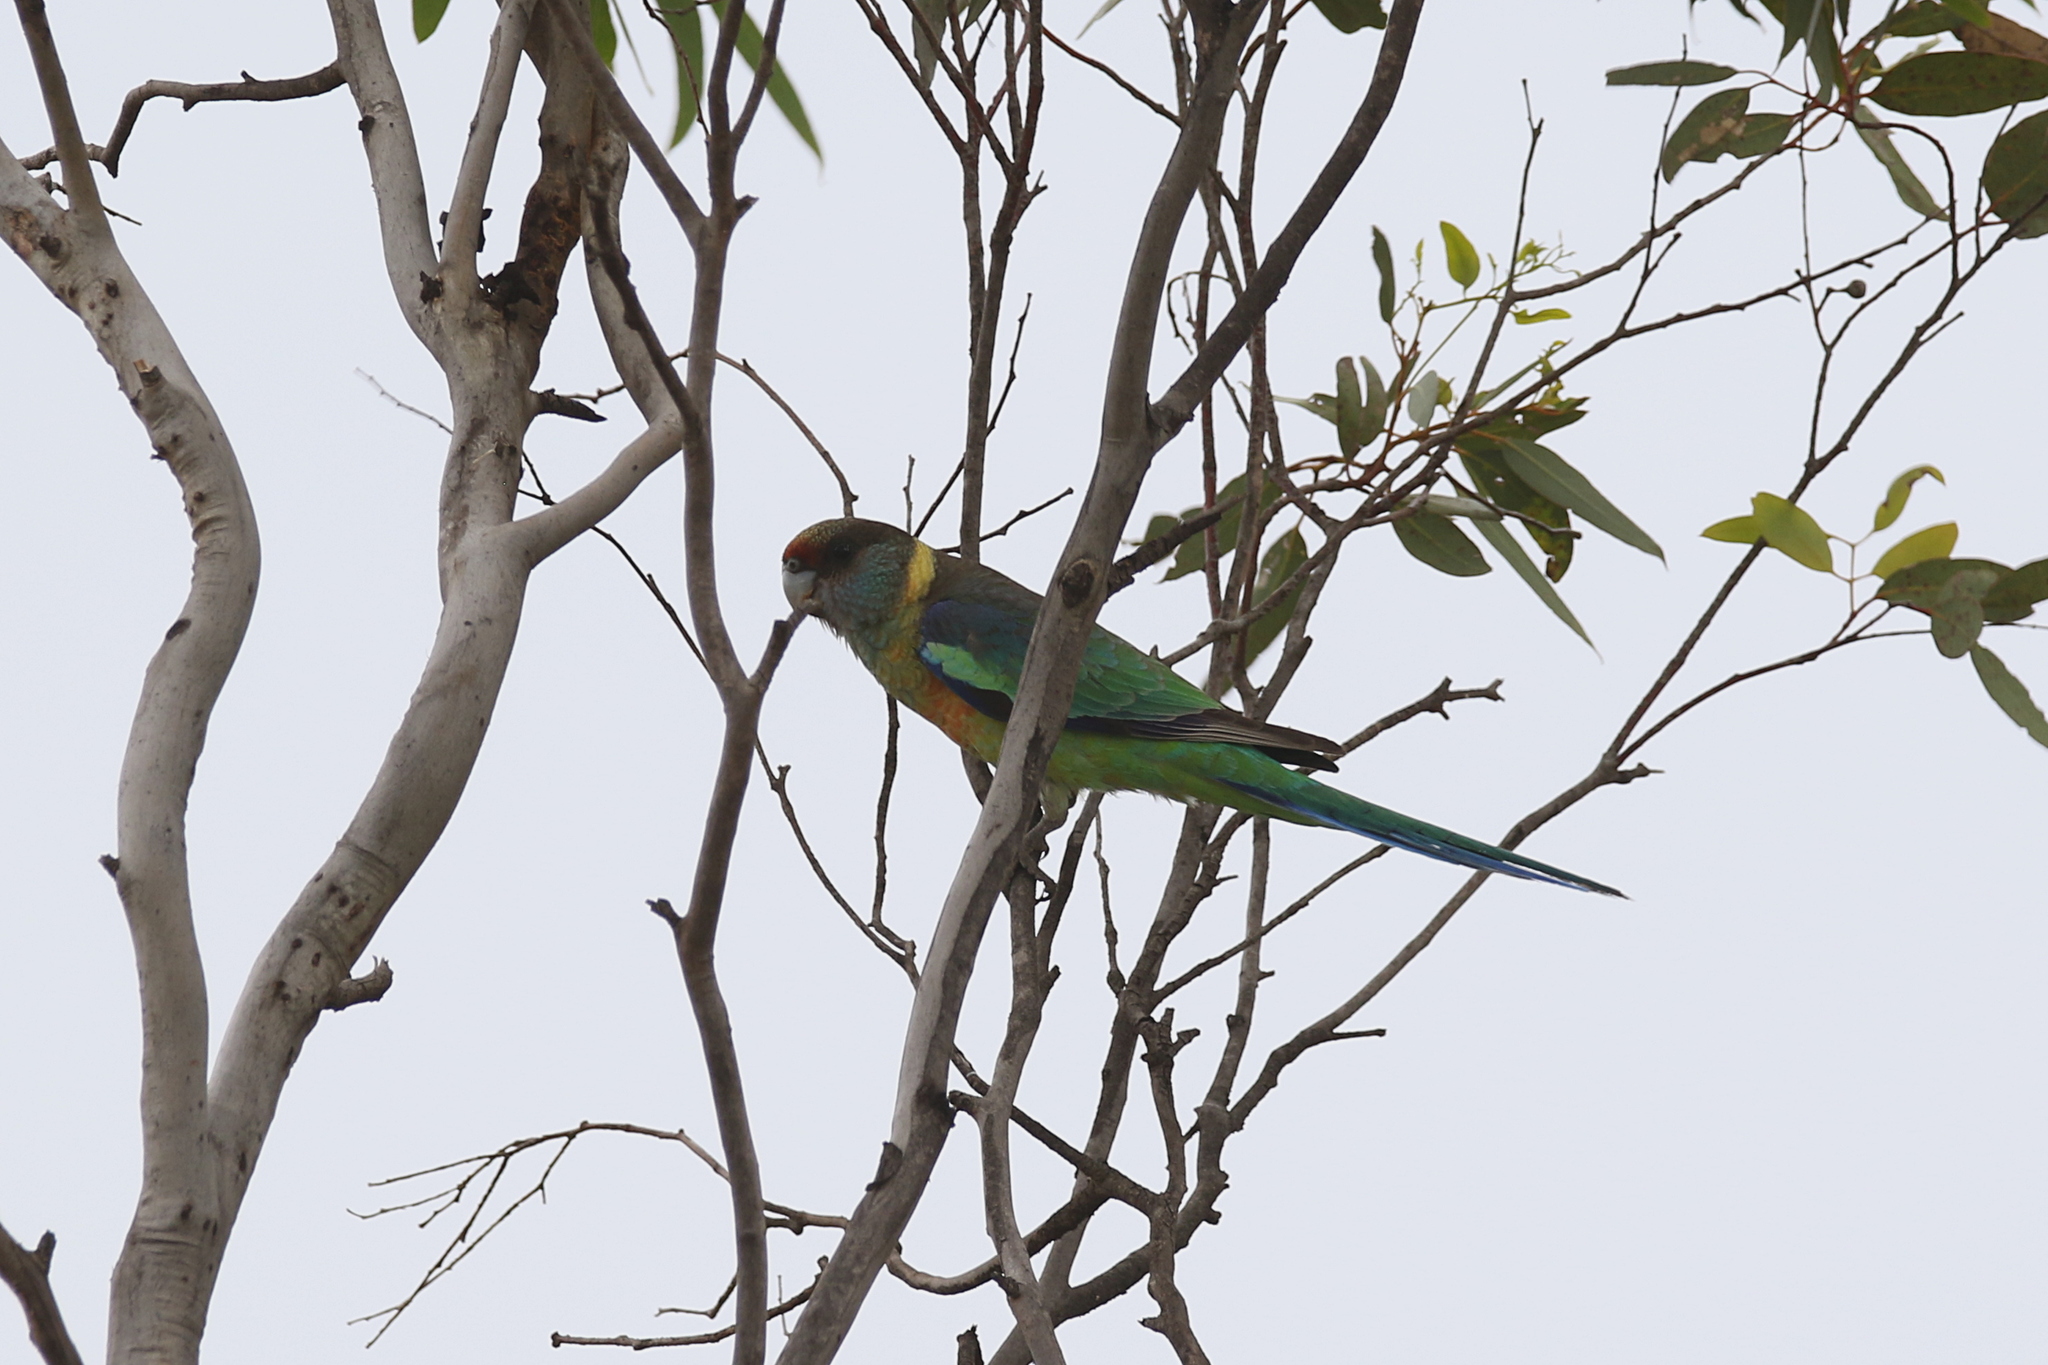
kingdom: Animalia
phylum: Chordata
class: Aves
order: Psittaciformes
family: Psittacidae
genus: Barnardius
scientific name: Barnardius zonarius
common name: Australian ringneck
